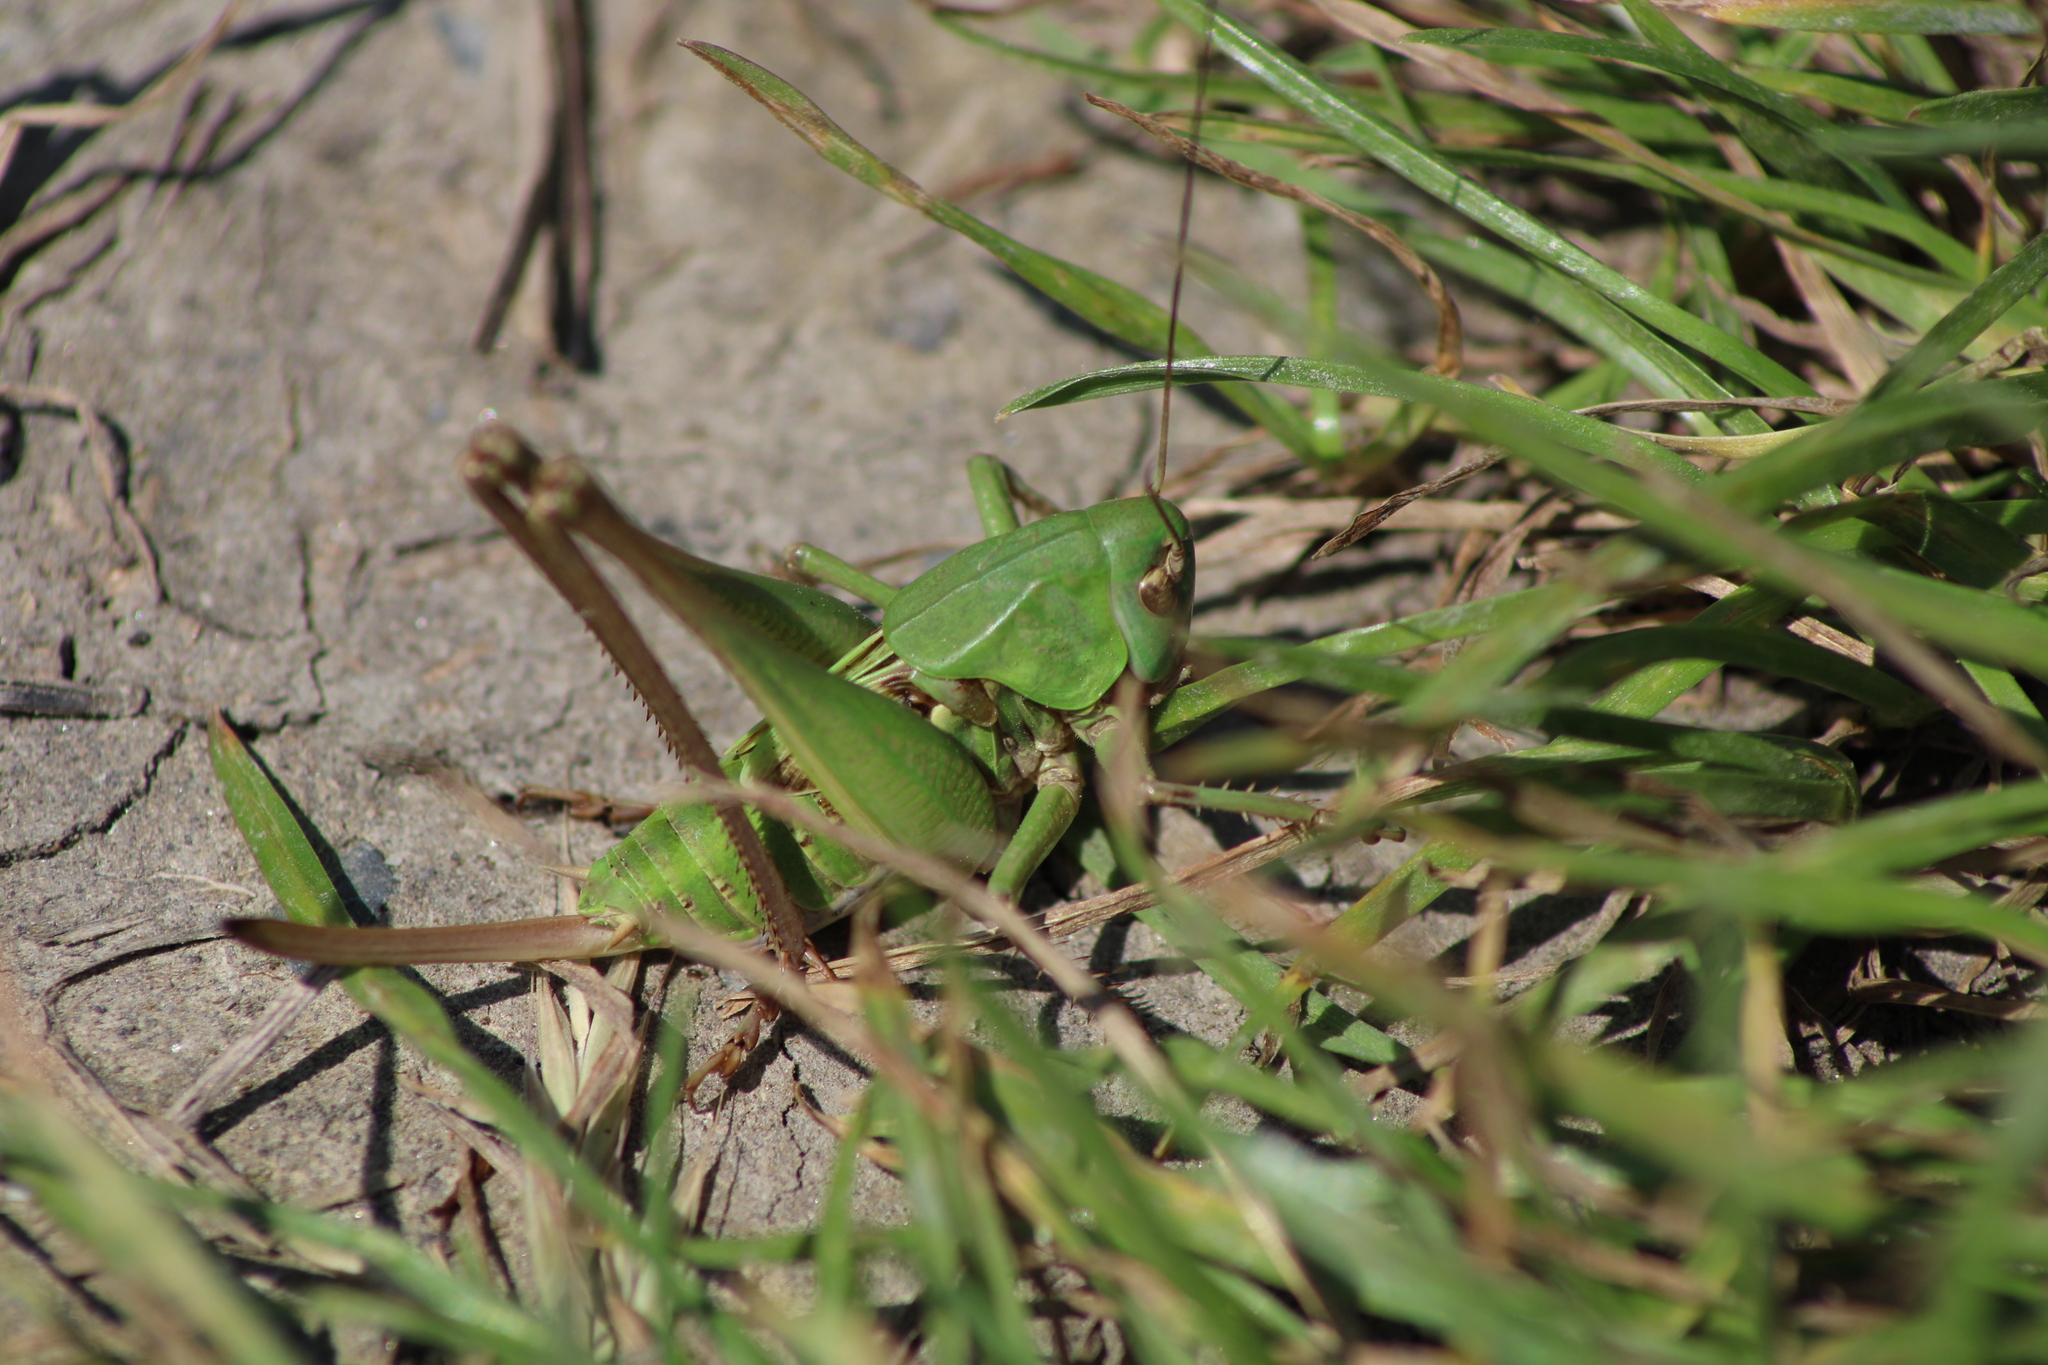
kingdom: Animalia
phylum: Arthropoda
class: Insecta
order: Orthoptera
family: Tettigoniidae
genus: Decticus
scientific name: Decticus verrucivorus
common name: Wart-biter
